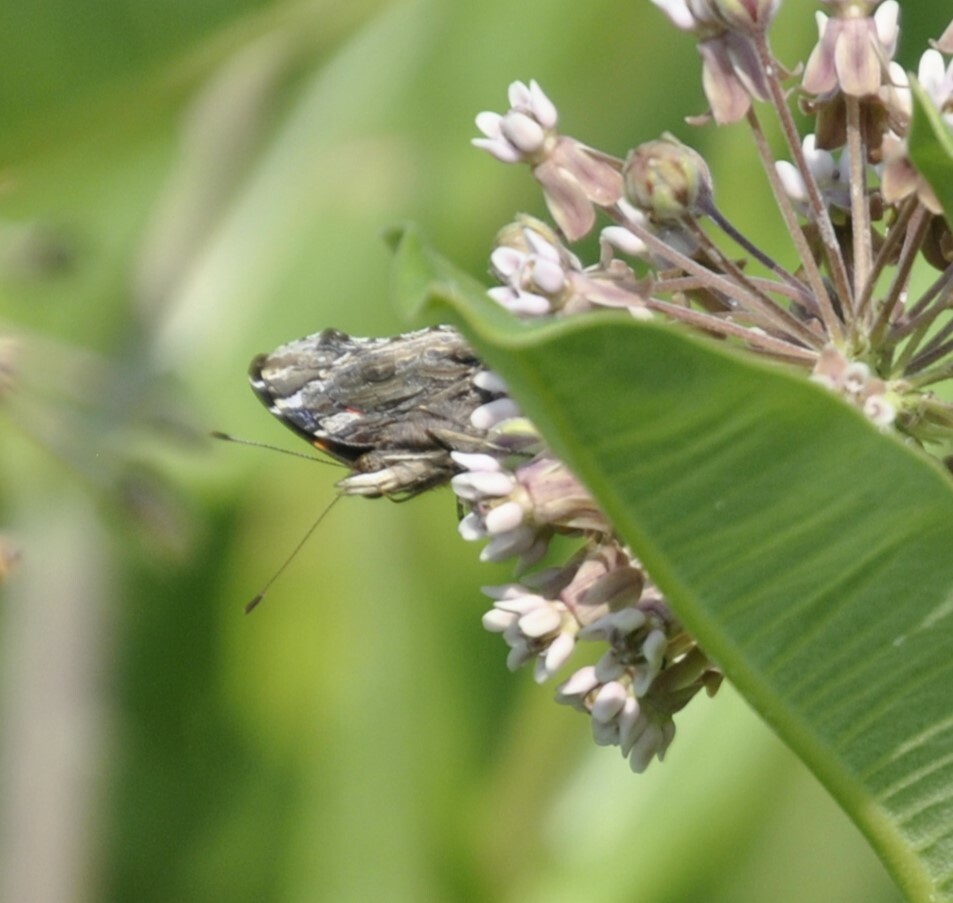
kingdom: Animalia
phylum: Arthropoda
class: Insecta
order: Lepidoptera
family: Nymphalidae
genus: Vanessa
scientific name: Vanessa atalanta
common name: Red admiral
